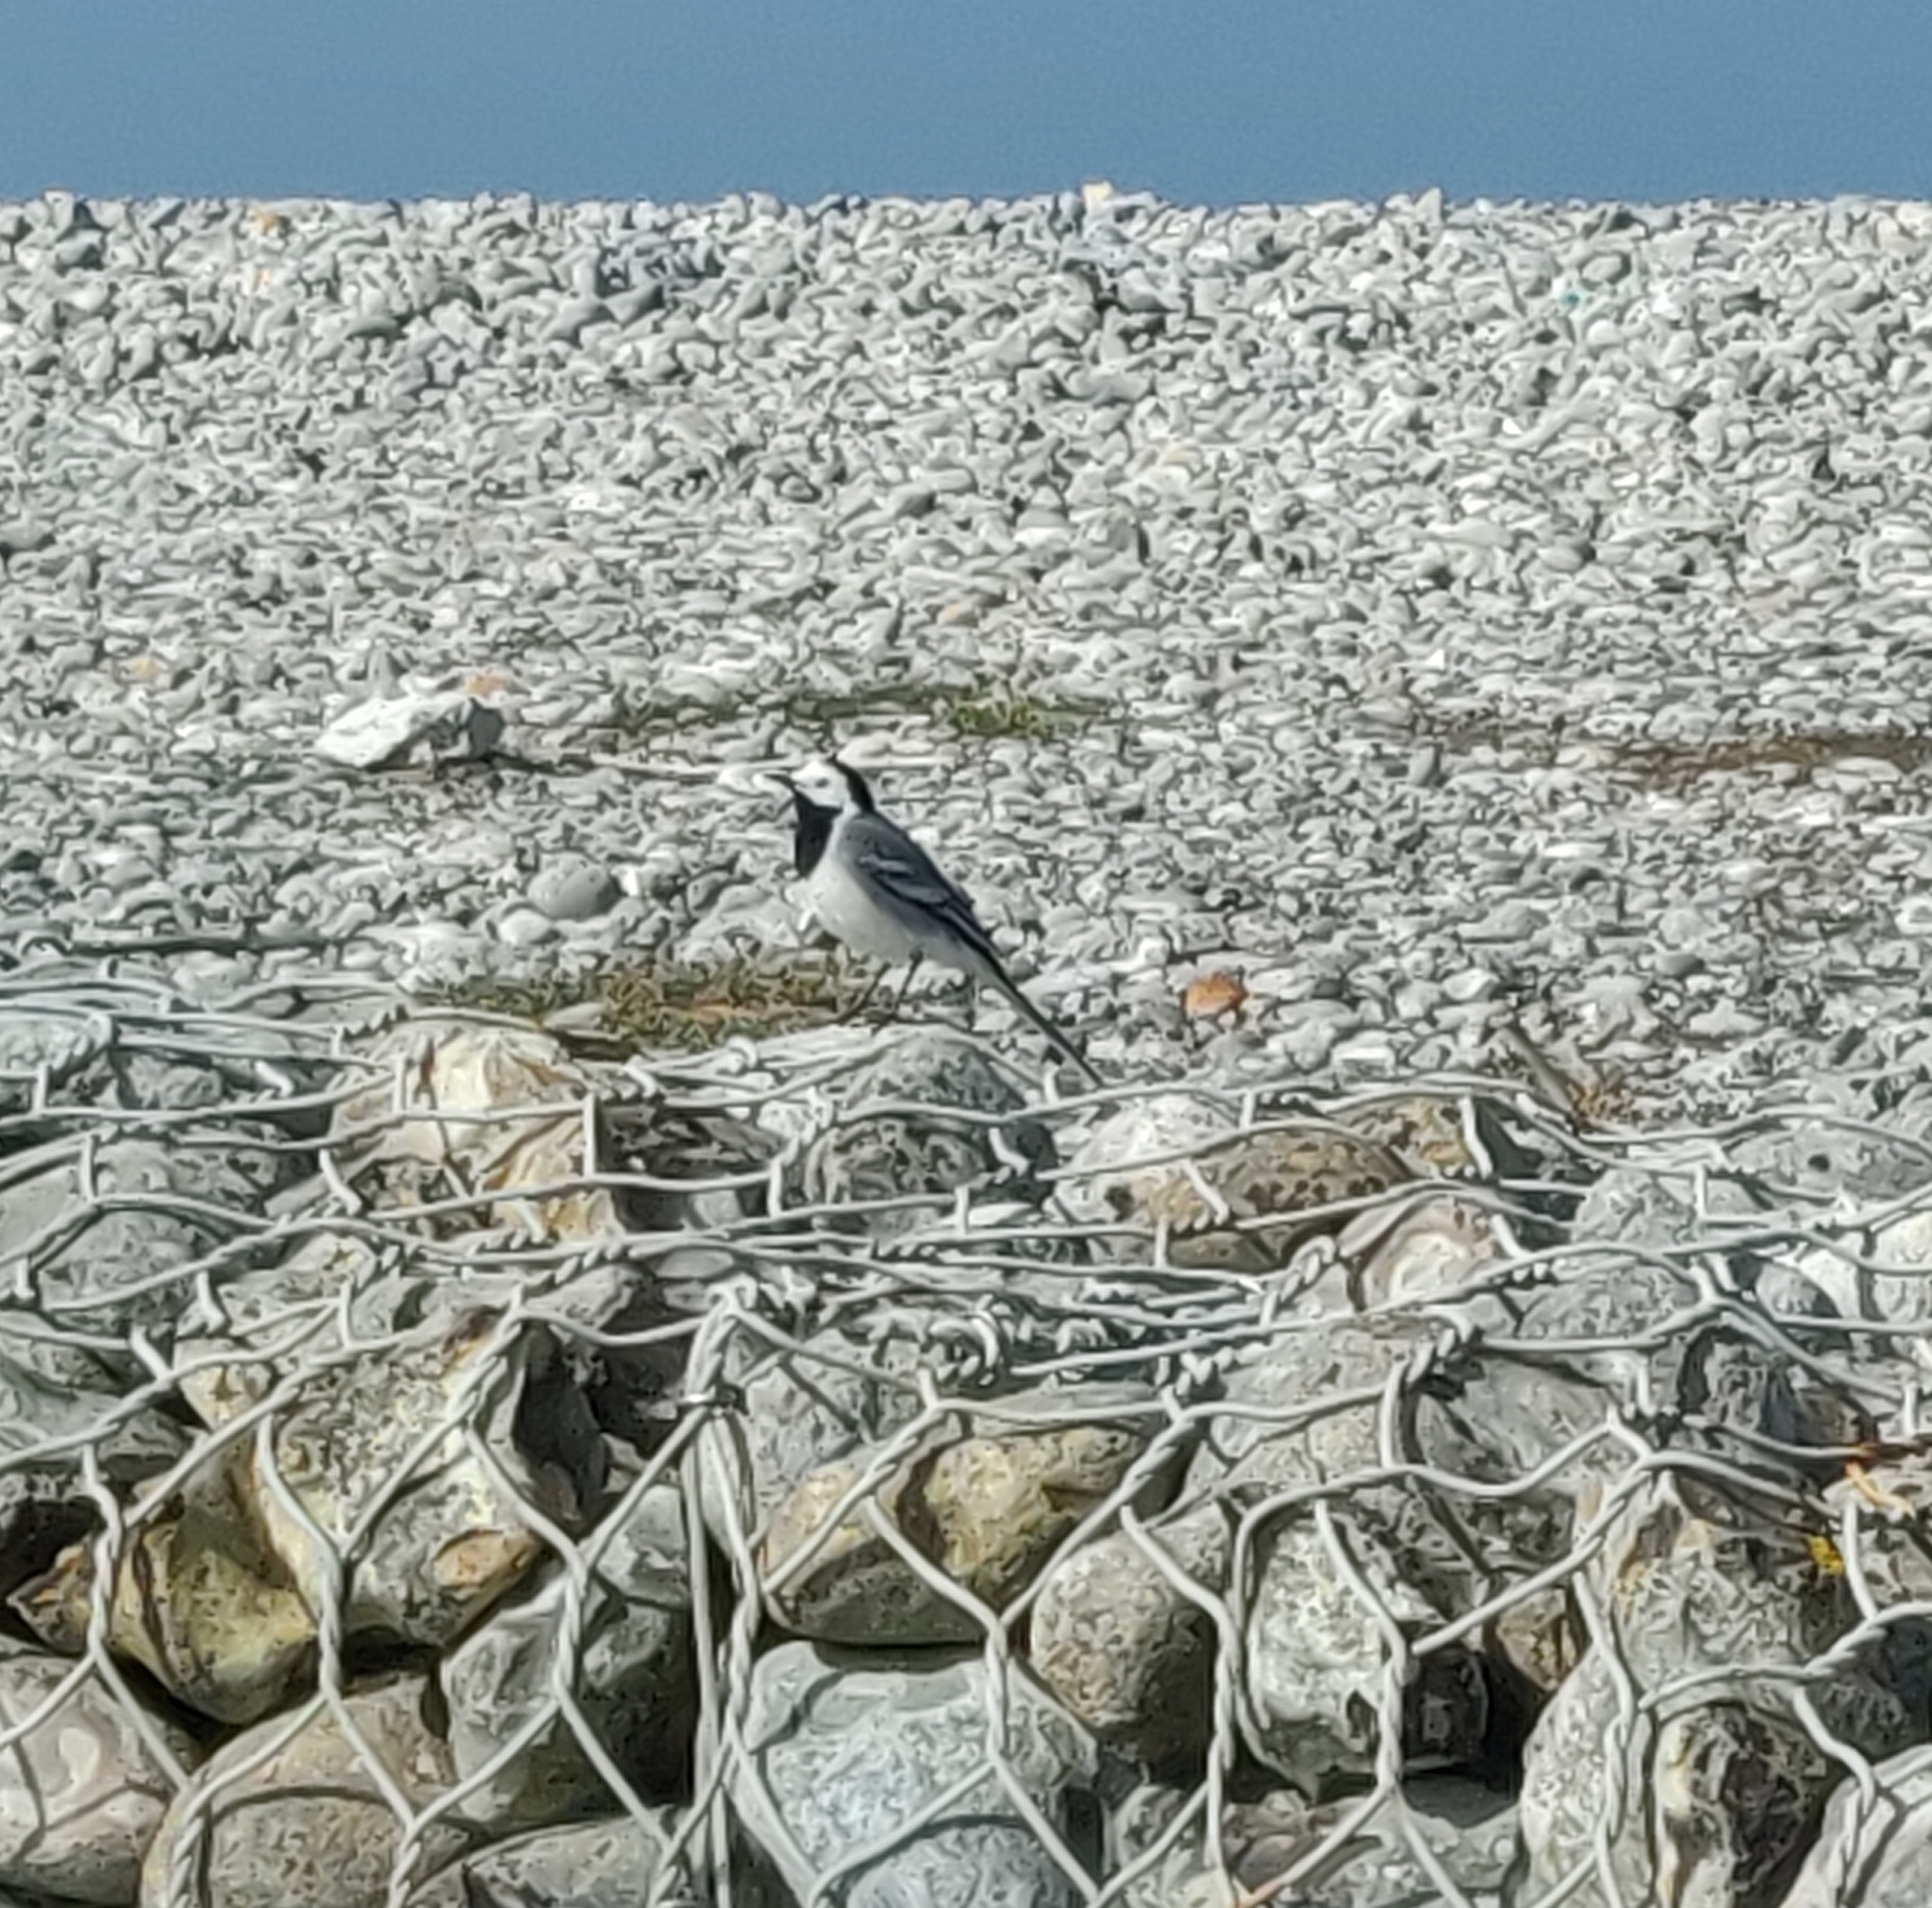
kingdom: Animalia
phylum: Chordata
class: Aves
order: Passeriformes
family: Motacillidae
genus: Motacilla
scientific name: Motacilla alba
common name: White wagtail
